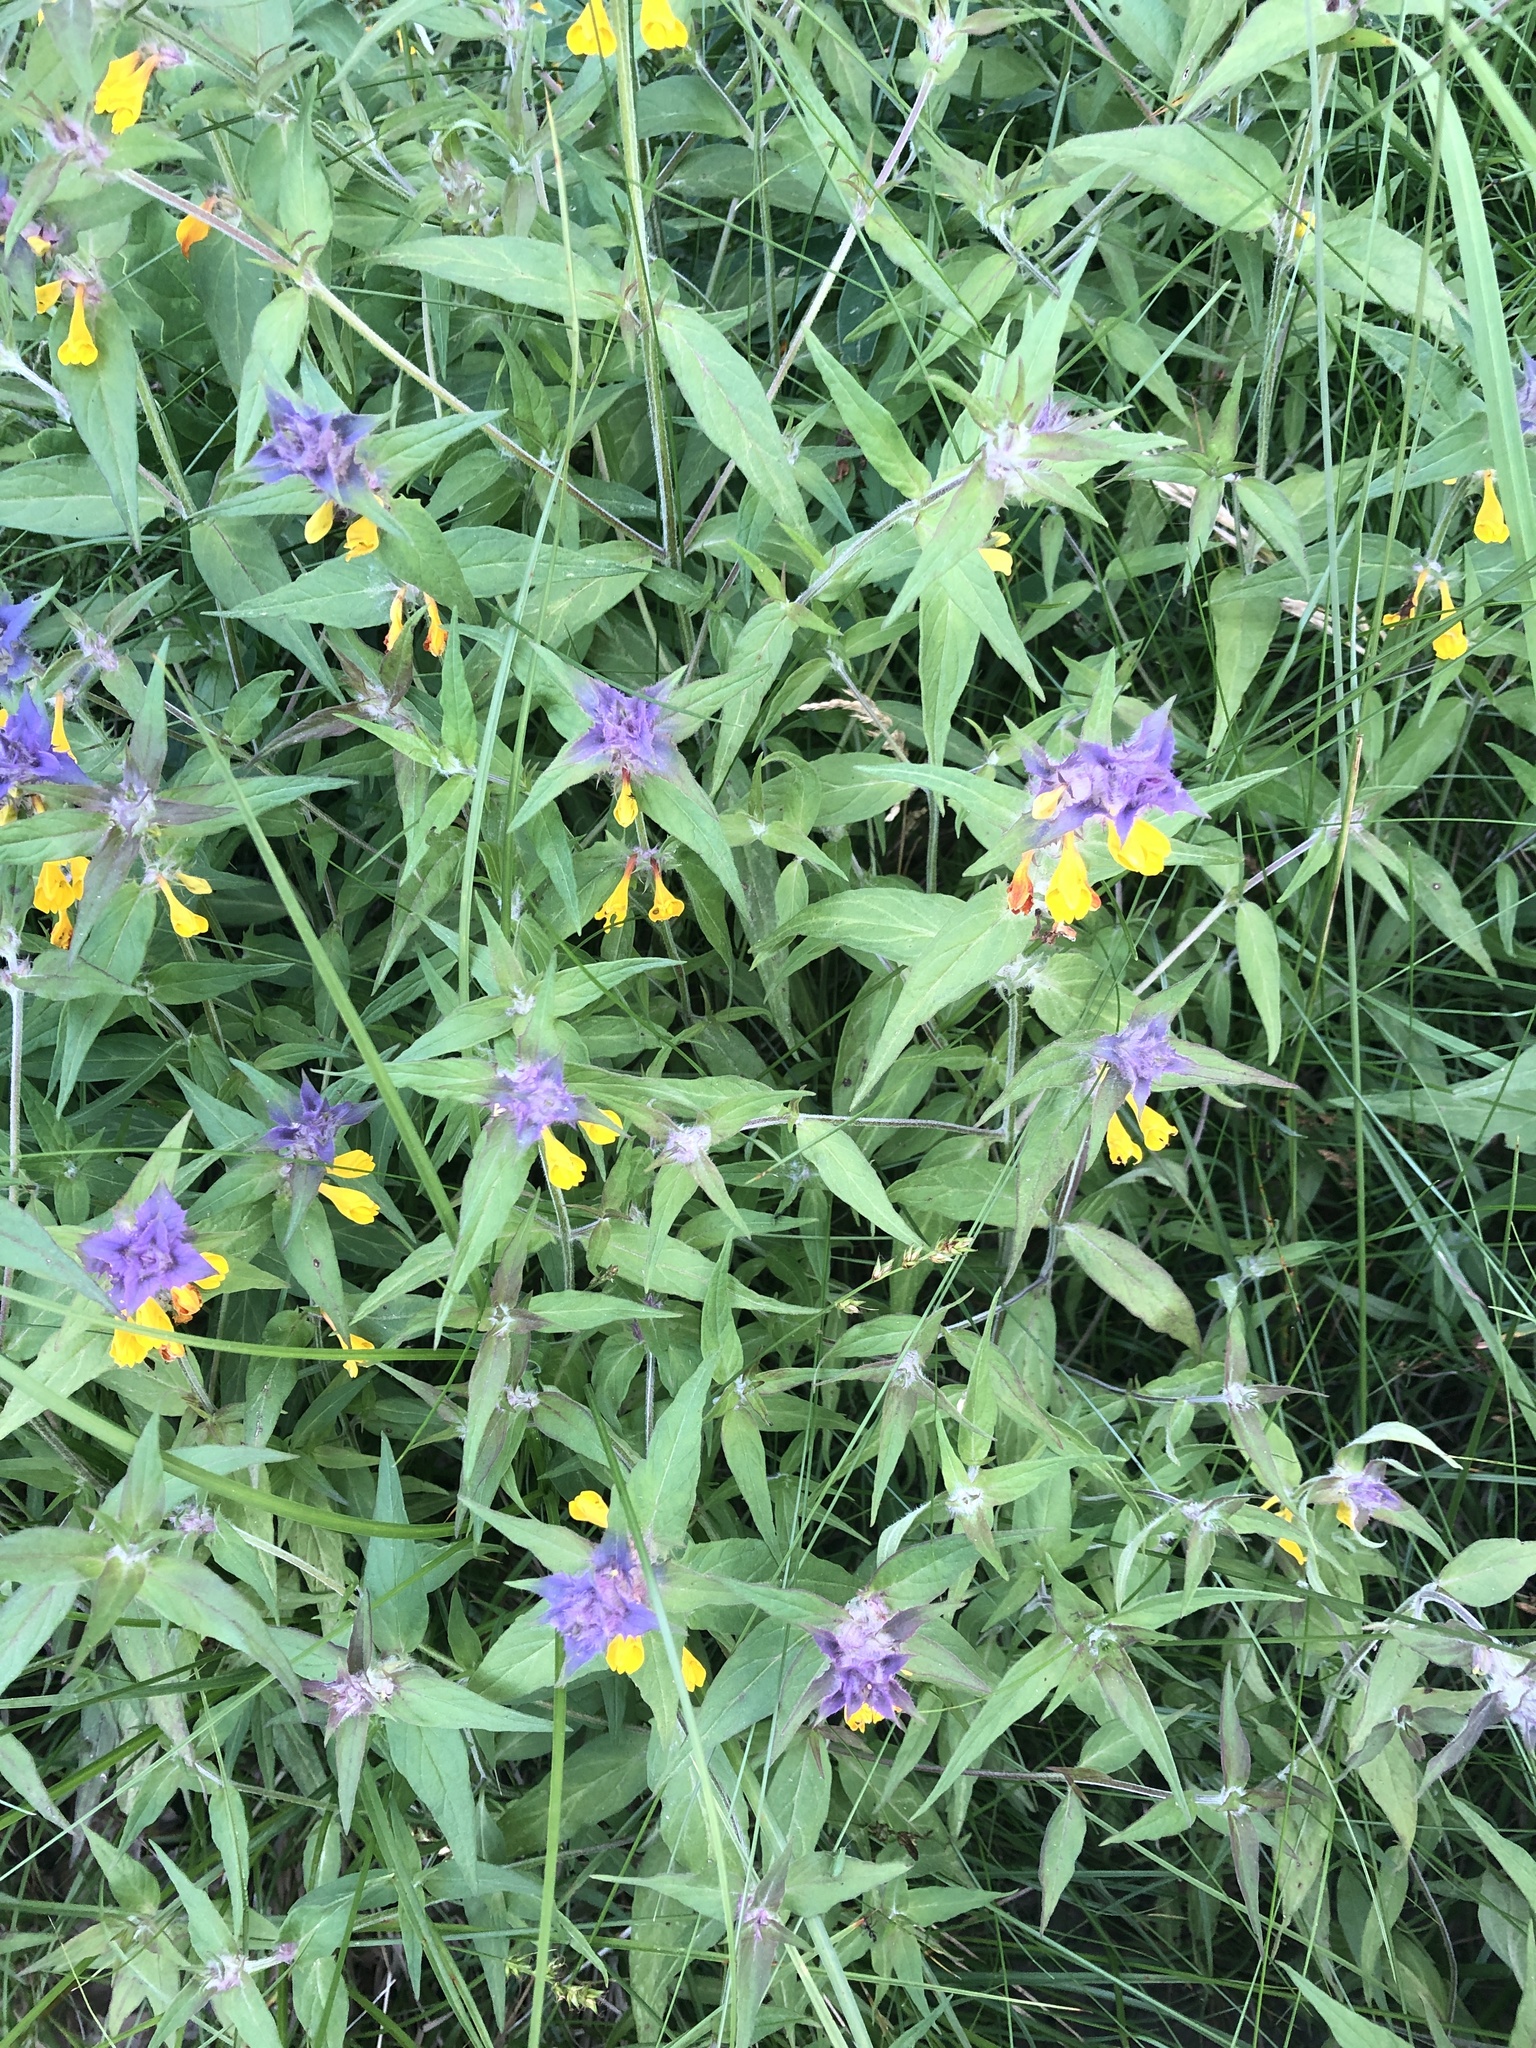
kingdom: Plantae
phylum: Tracheophyta
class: Magnoliopsida
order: Lamiales
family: Orobanchaceae
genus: Melampyrum
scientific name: Melampyrum nemorosum
